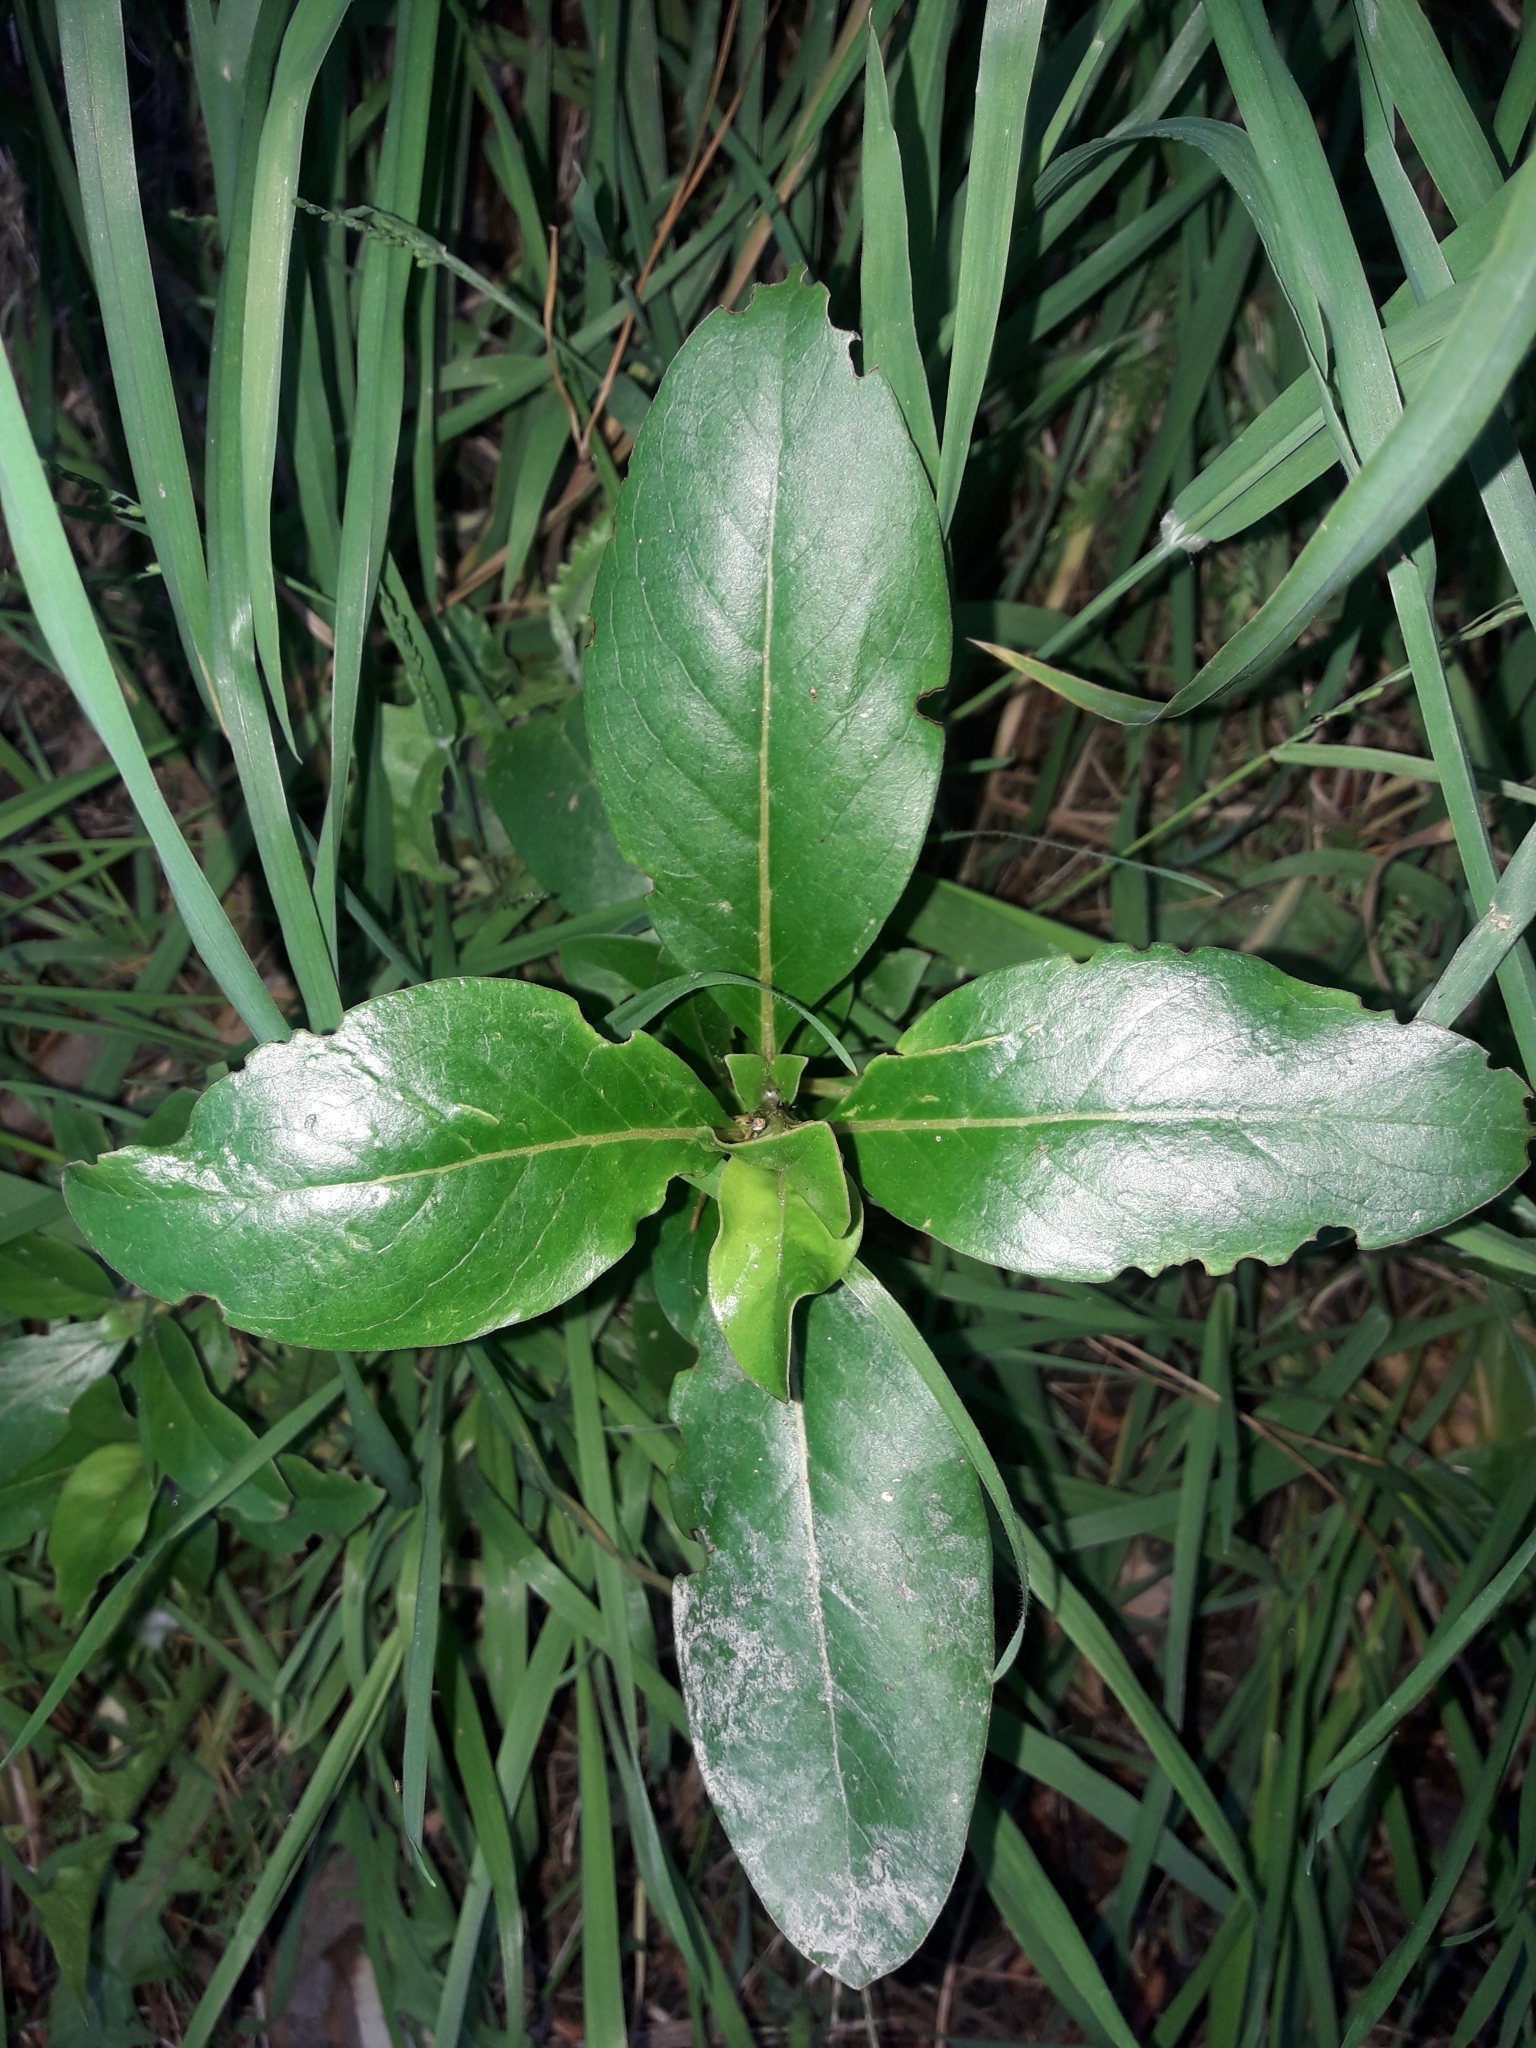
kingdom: Plantae
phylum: Tracheophyta
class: Magnoliopsida
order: Gentianales
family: Rubiaceae
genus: Coprosma
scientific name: Coprosma robusta
